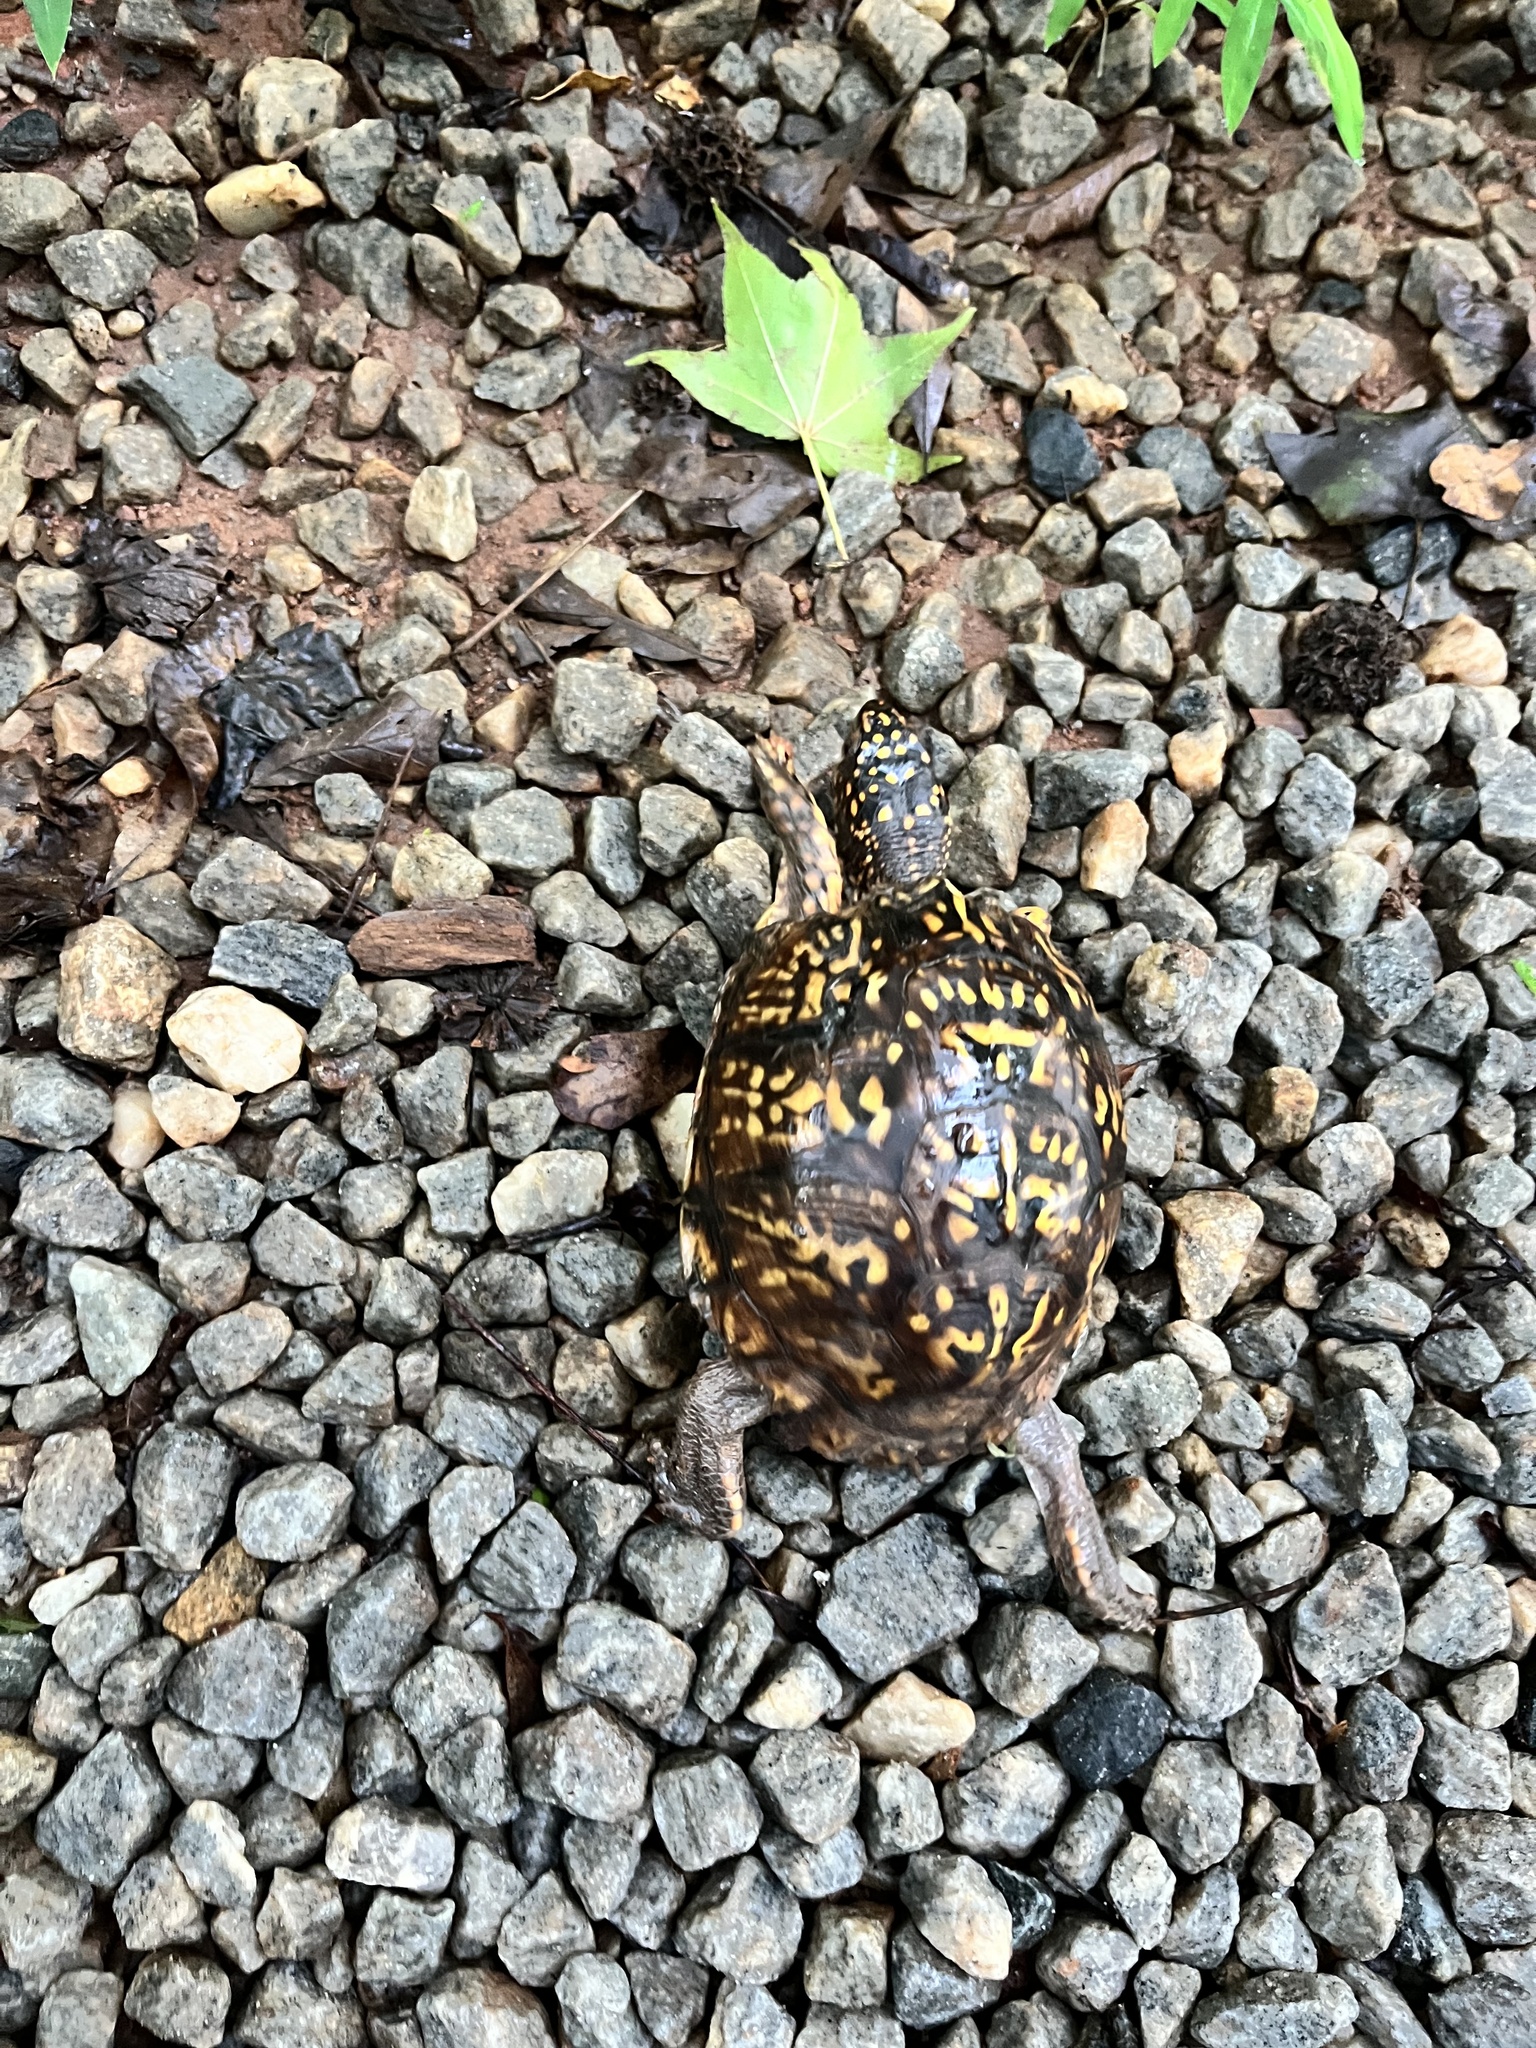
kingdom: Animalia
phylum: Chordata
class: Testudines
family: Emydidae
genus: Terrapene
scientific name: Terrapene carolina
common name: Common box turtle
